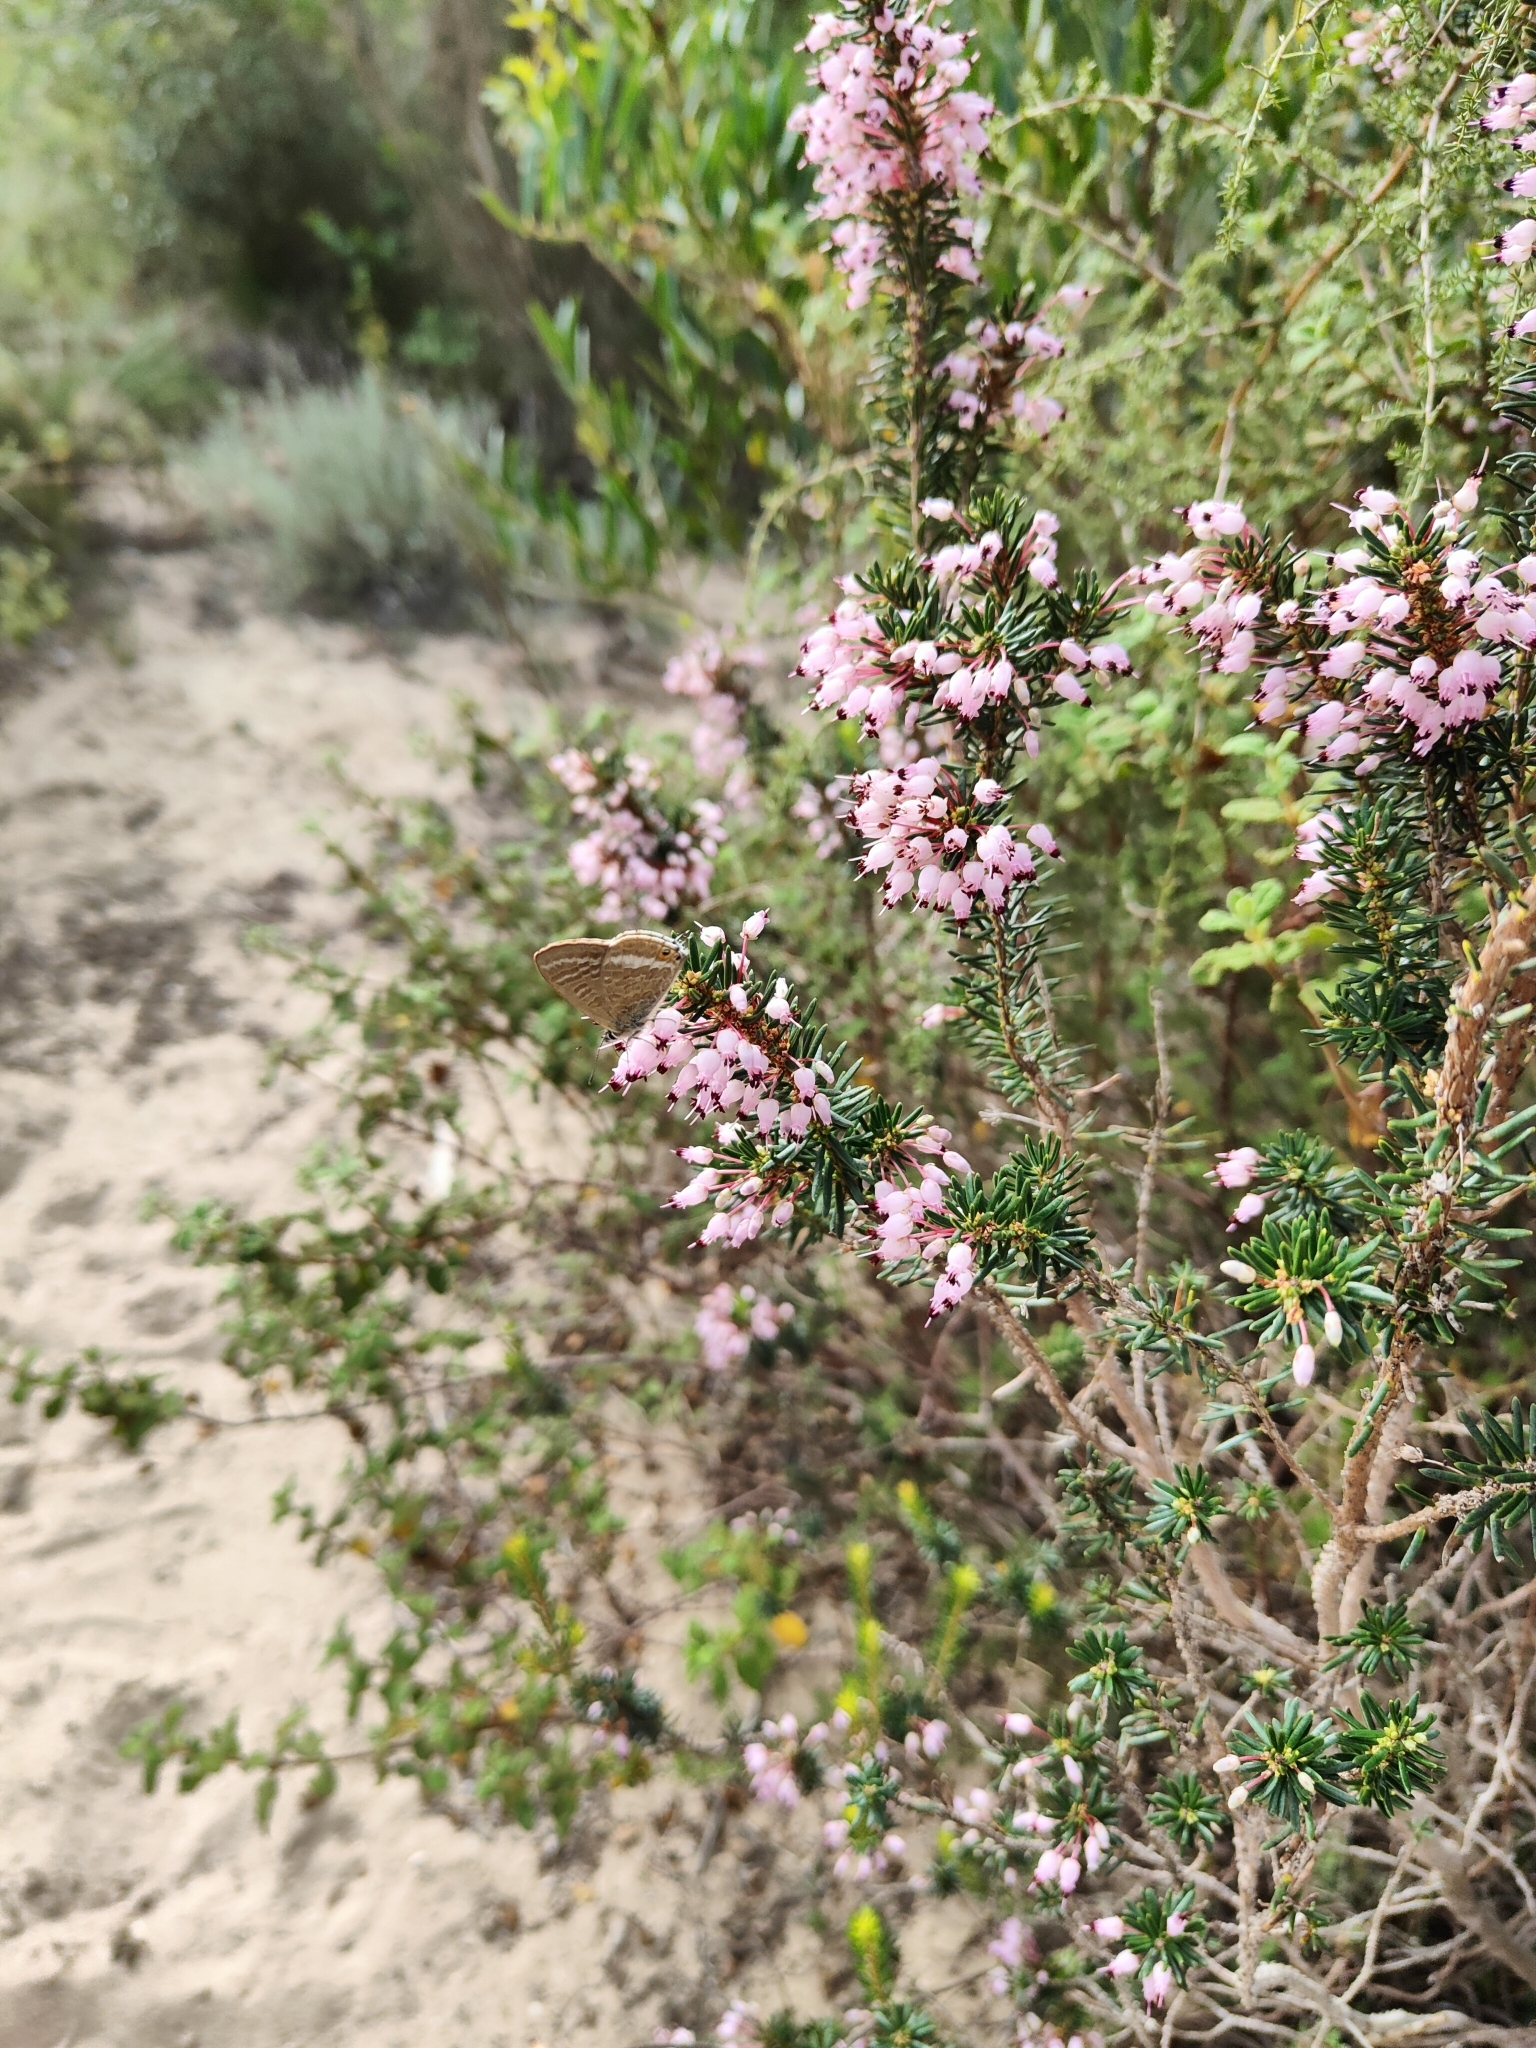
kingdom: Animalia
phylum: Arthropoda
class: Insecta
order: Lepidoptera
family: Lycaenidae
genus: Lampides
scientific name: Lampides boeticus
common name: Long-tailed blue
